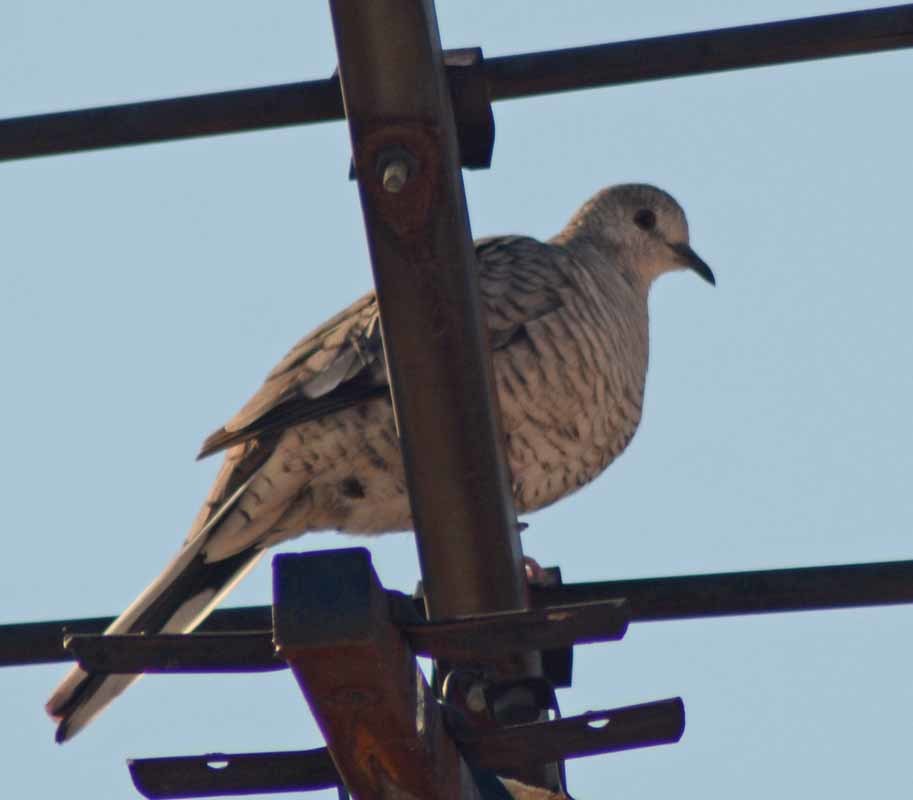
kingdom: Animalia
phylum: Chordata
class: Aves
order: Columbiformes
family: Columbidae
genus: Columbina
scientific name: Columbina inca
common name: Inca dove
